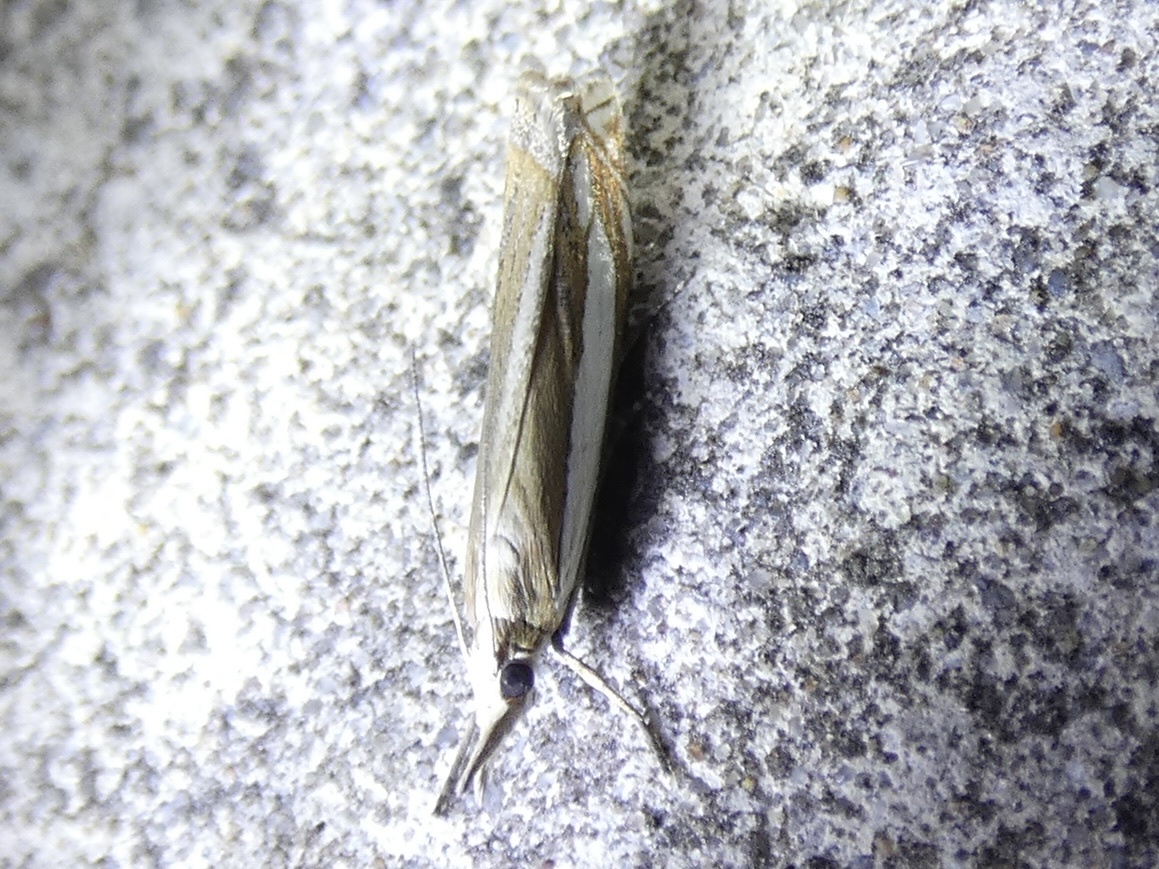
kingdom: Animalia
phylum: Arthropoda
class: Insecta
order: Lepidoptera
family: Crambidae
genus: Crambus
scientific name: Crambus pascuella
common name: Inlaid grass-veneer
